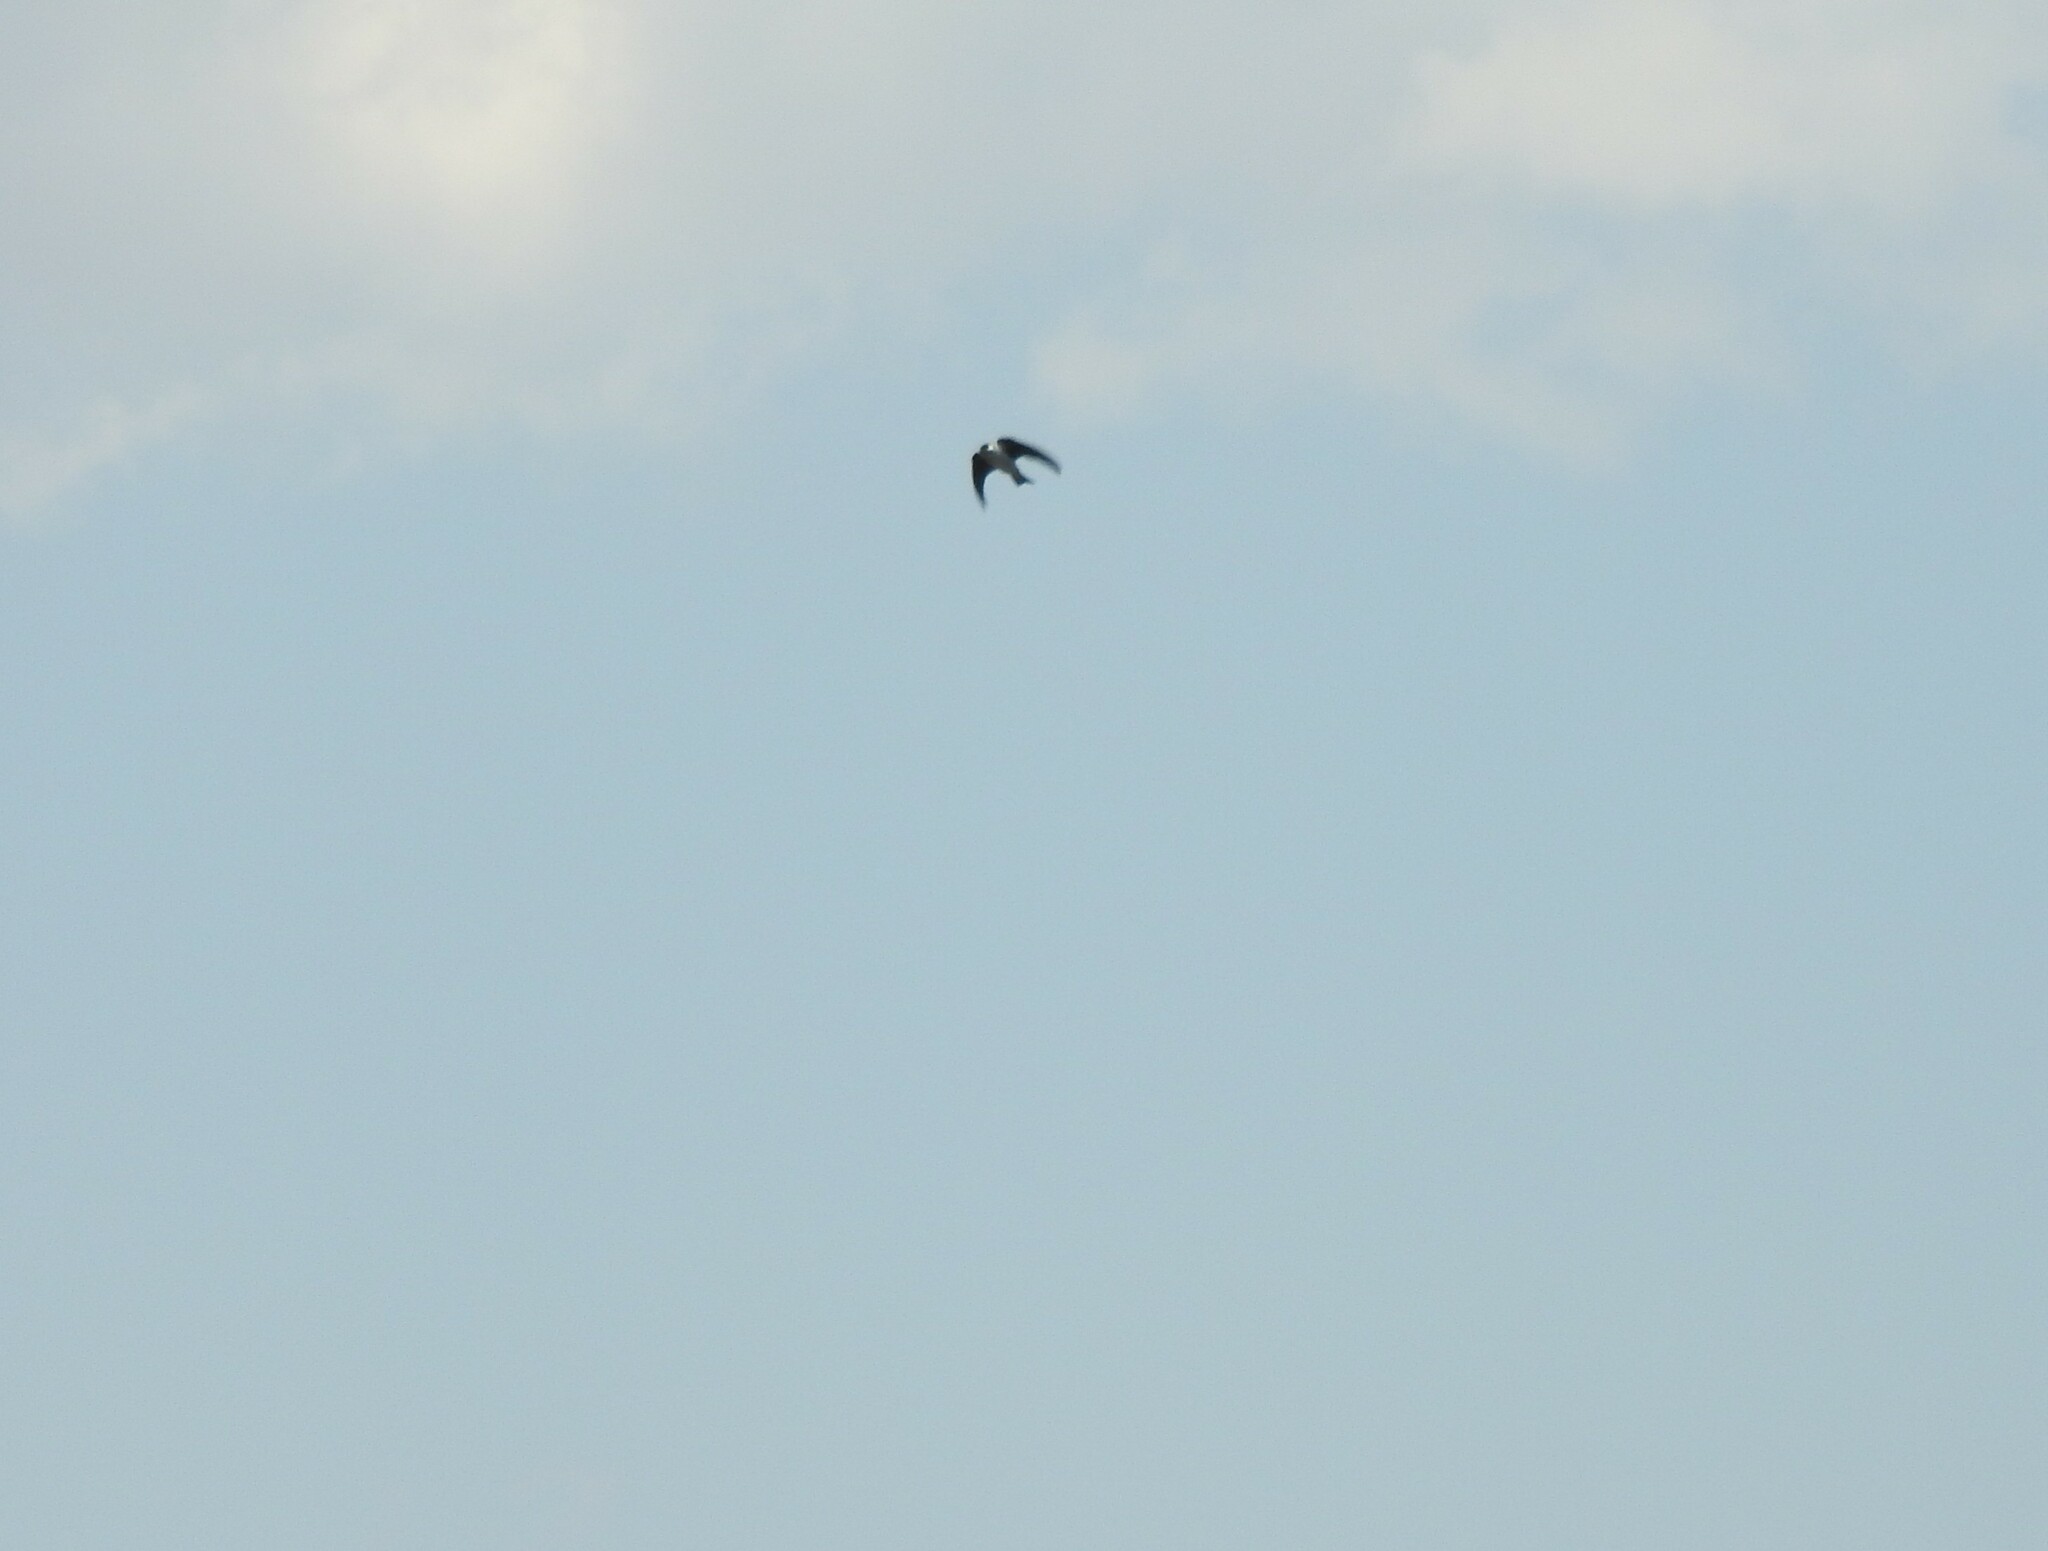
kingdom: Animalia
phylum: Chordata
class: Aves
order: Apodiformes
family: Apodidae
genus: Aeronautes
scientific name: Aeronautes saxatalis
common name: White-throated swift
